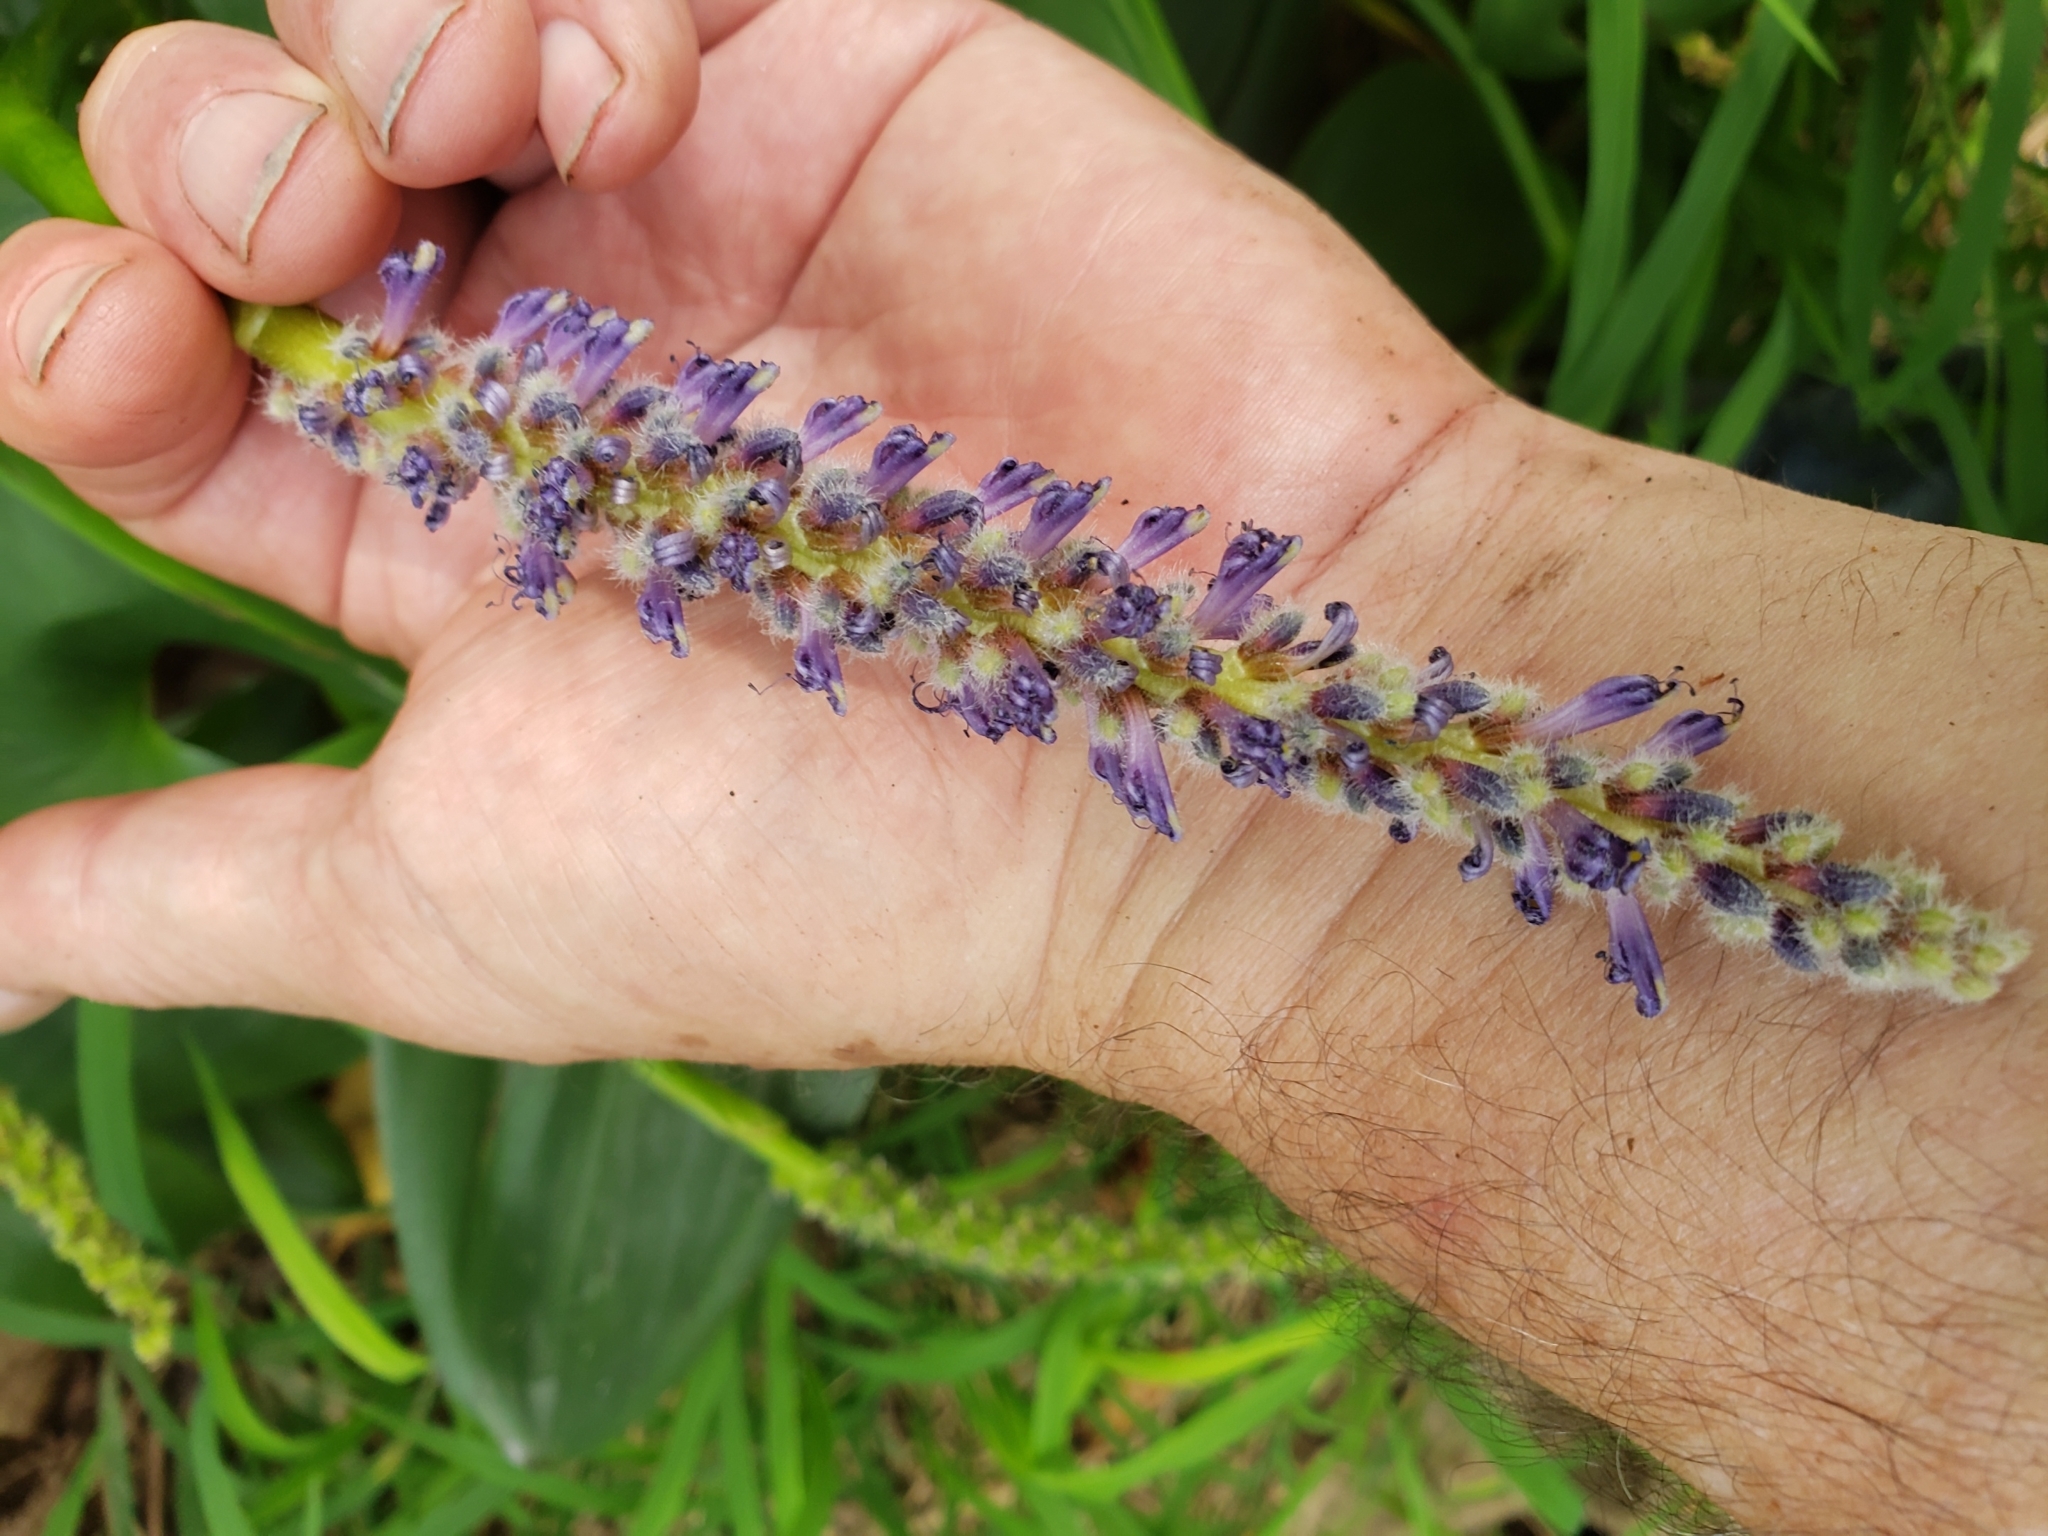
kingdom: Plantae
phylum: Tracheophyta
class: Liliopsida
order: Commelinales
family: Pontederiaceae
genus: Pontederia
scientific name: Pontederia cordata
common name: Pickerelweed
